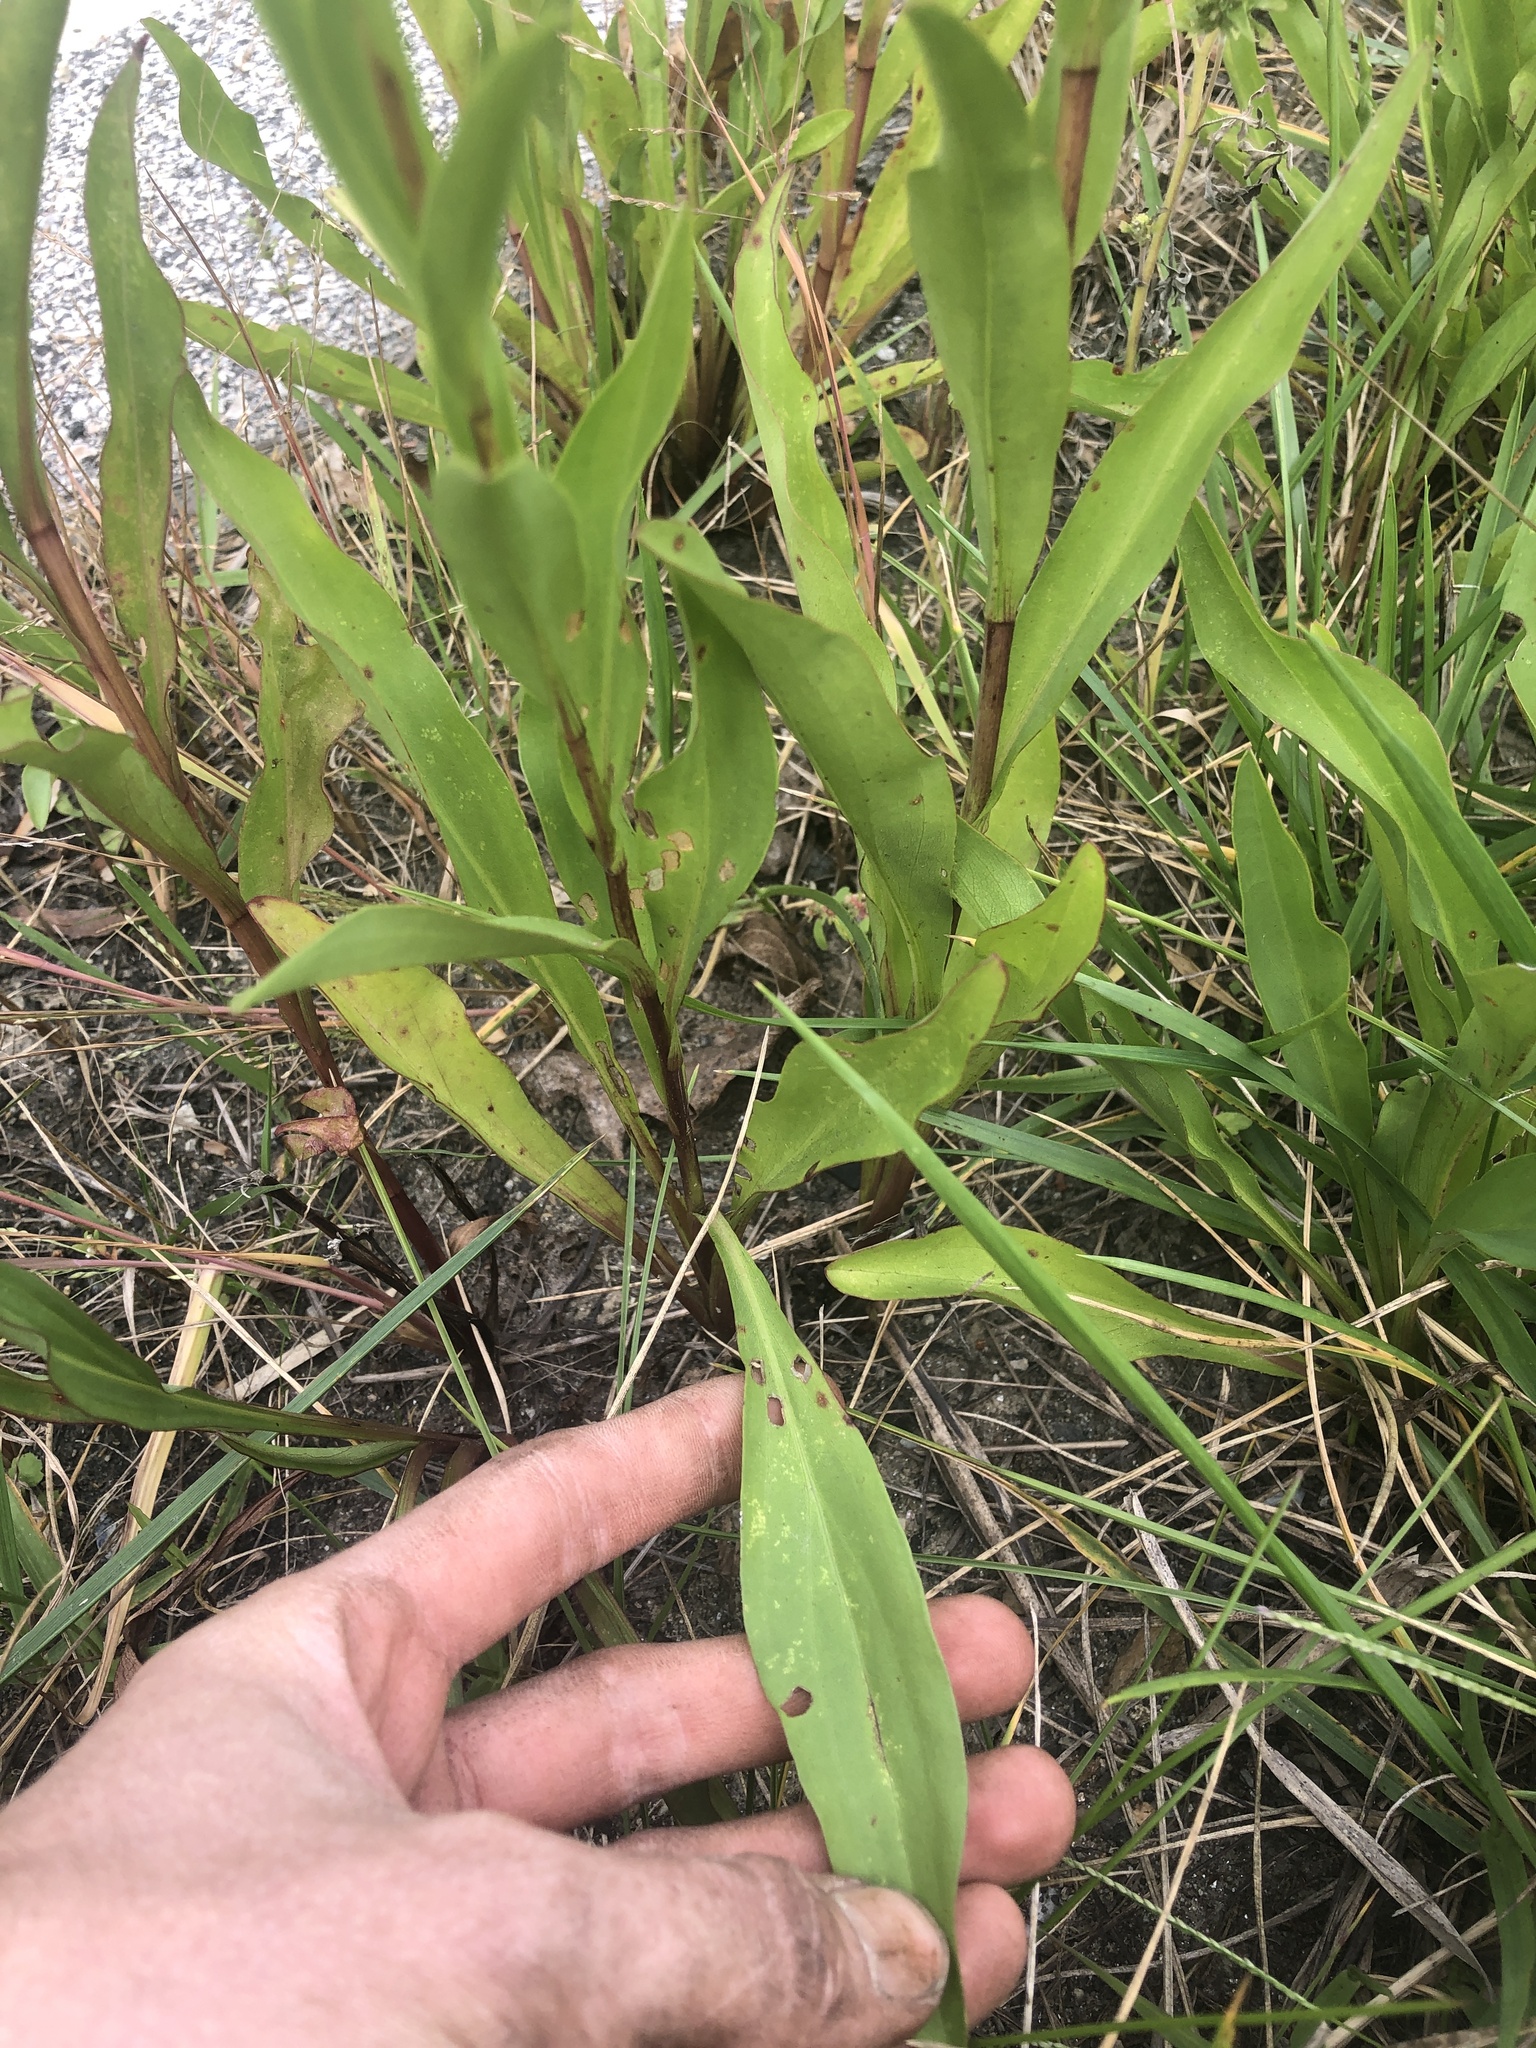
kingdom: Plantae
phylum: Tracheophyta
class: Magnoliopsida
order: Asterales
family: Asteraceae
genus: Solidago
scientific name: Solidago sempervirens
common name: Salt-marsh goldenrod
